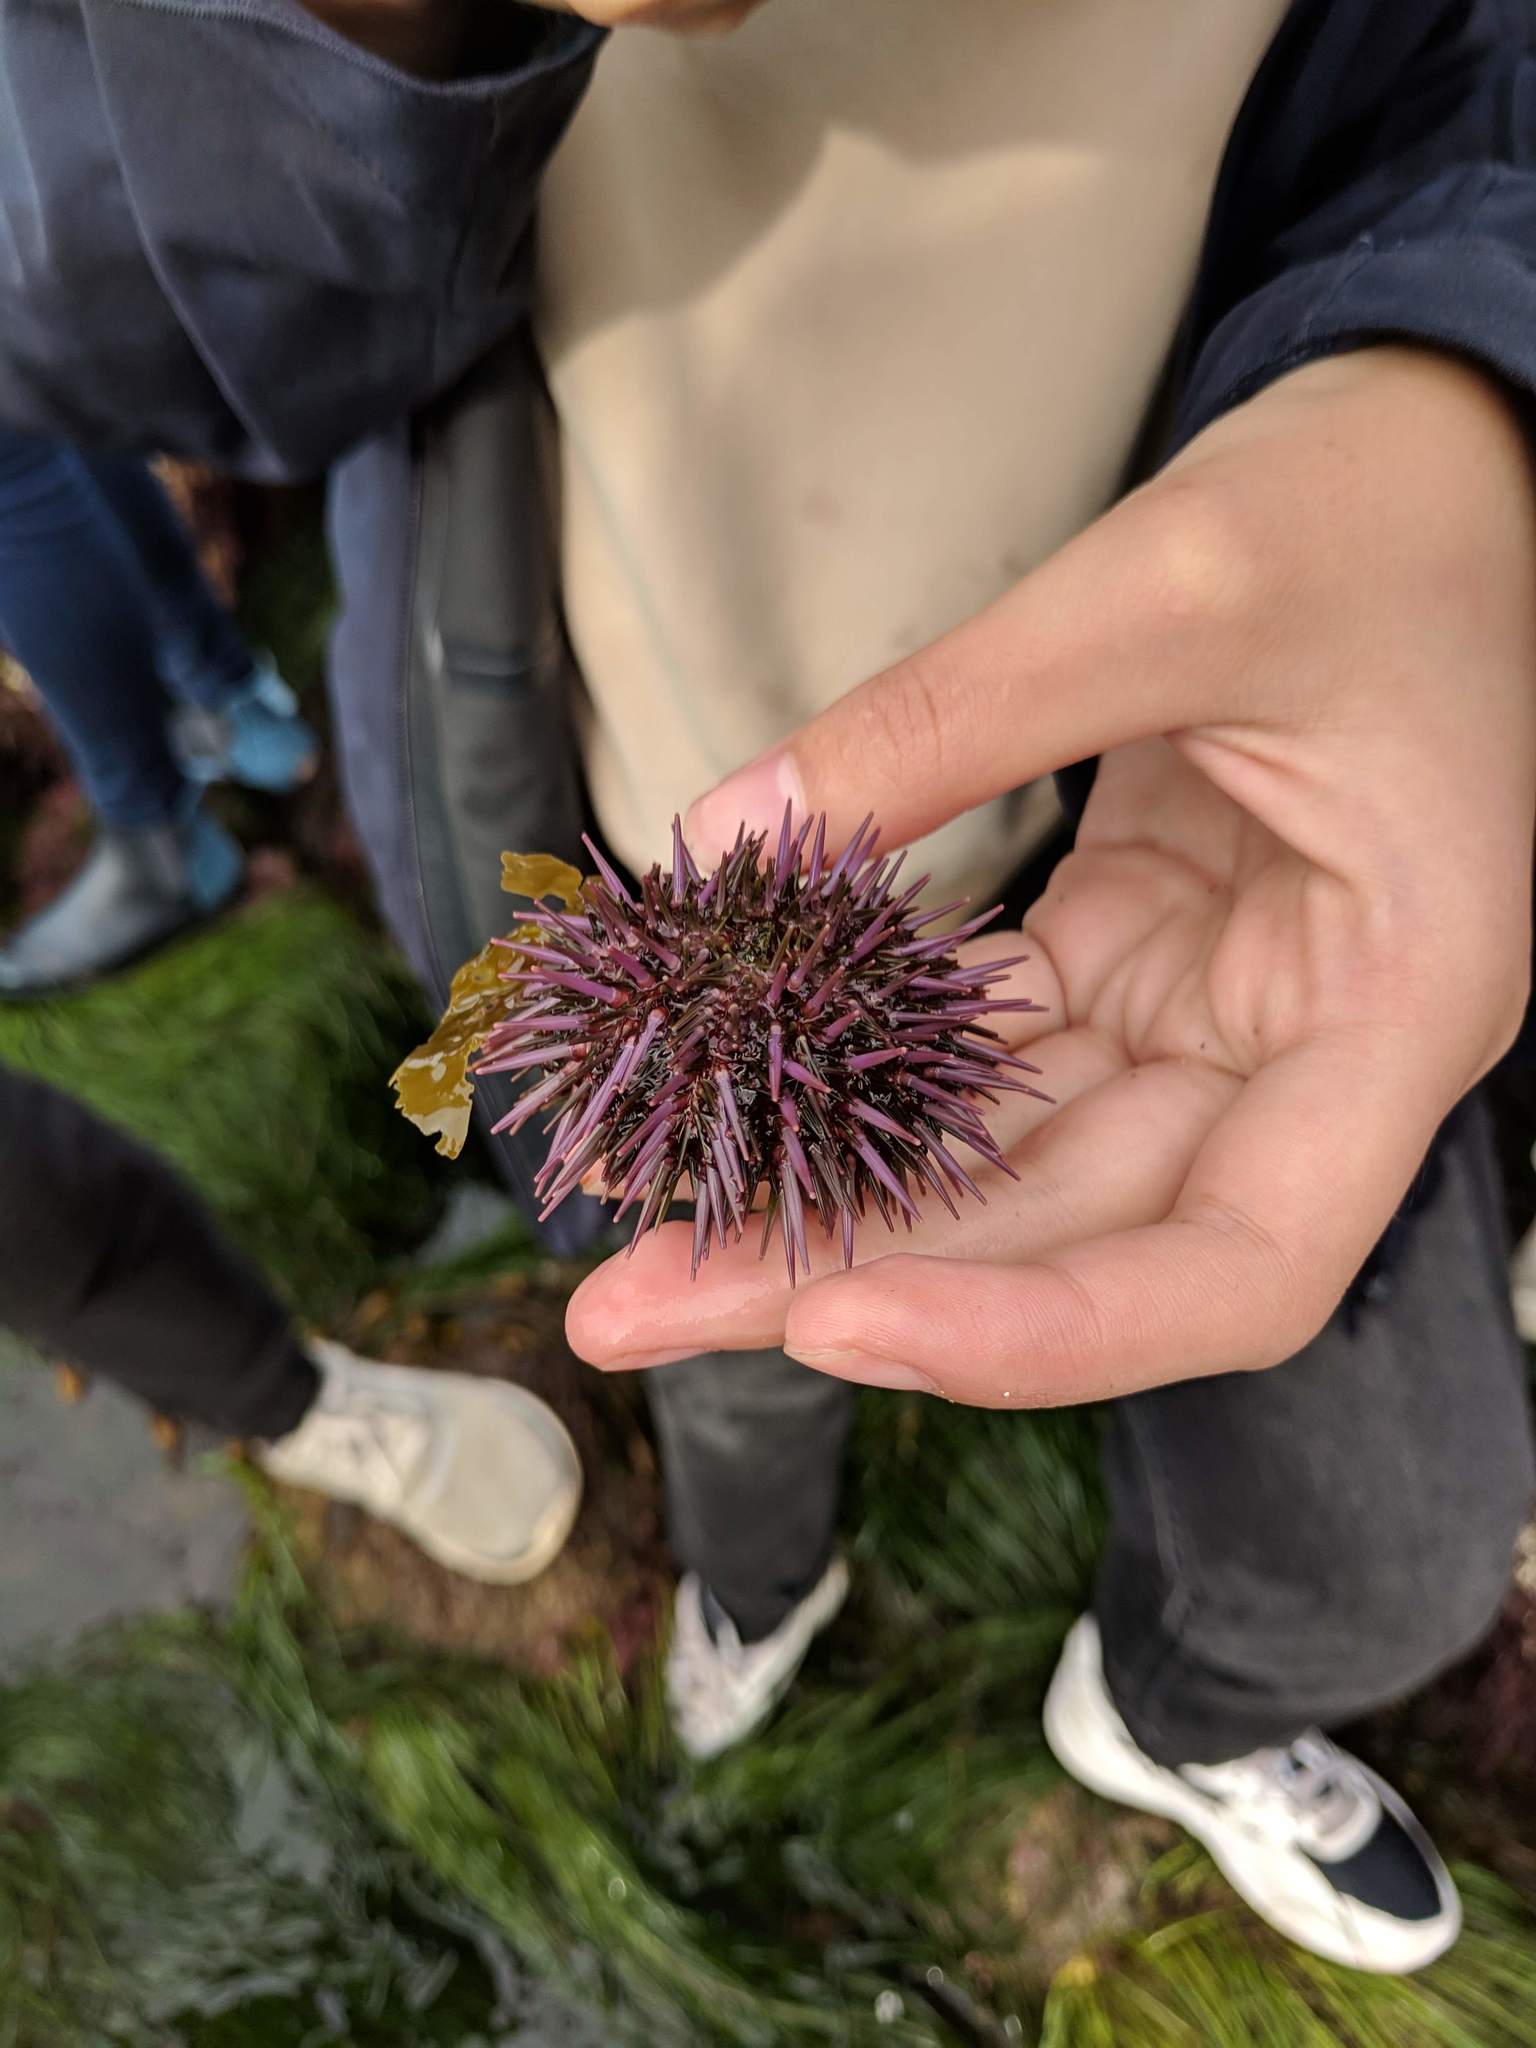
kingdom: Animalia
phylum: Echinodermata
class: Echinoidea
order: Camarodonta
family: Strongylocentrotidae
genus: Strongylocentrotus
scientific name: Strongylocentrotus purpuratus
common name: Purple sea urchin
